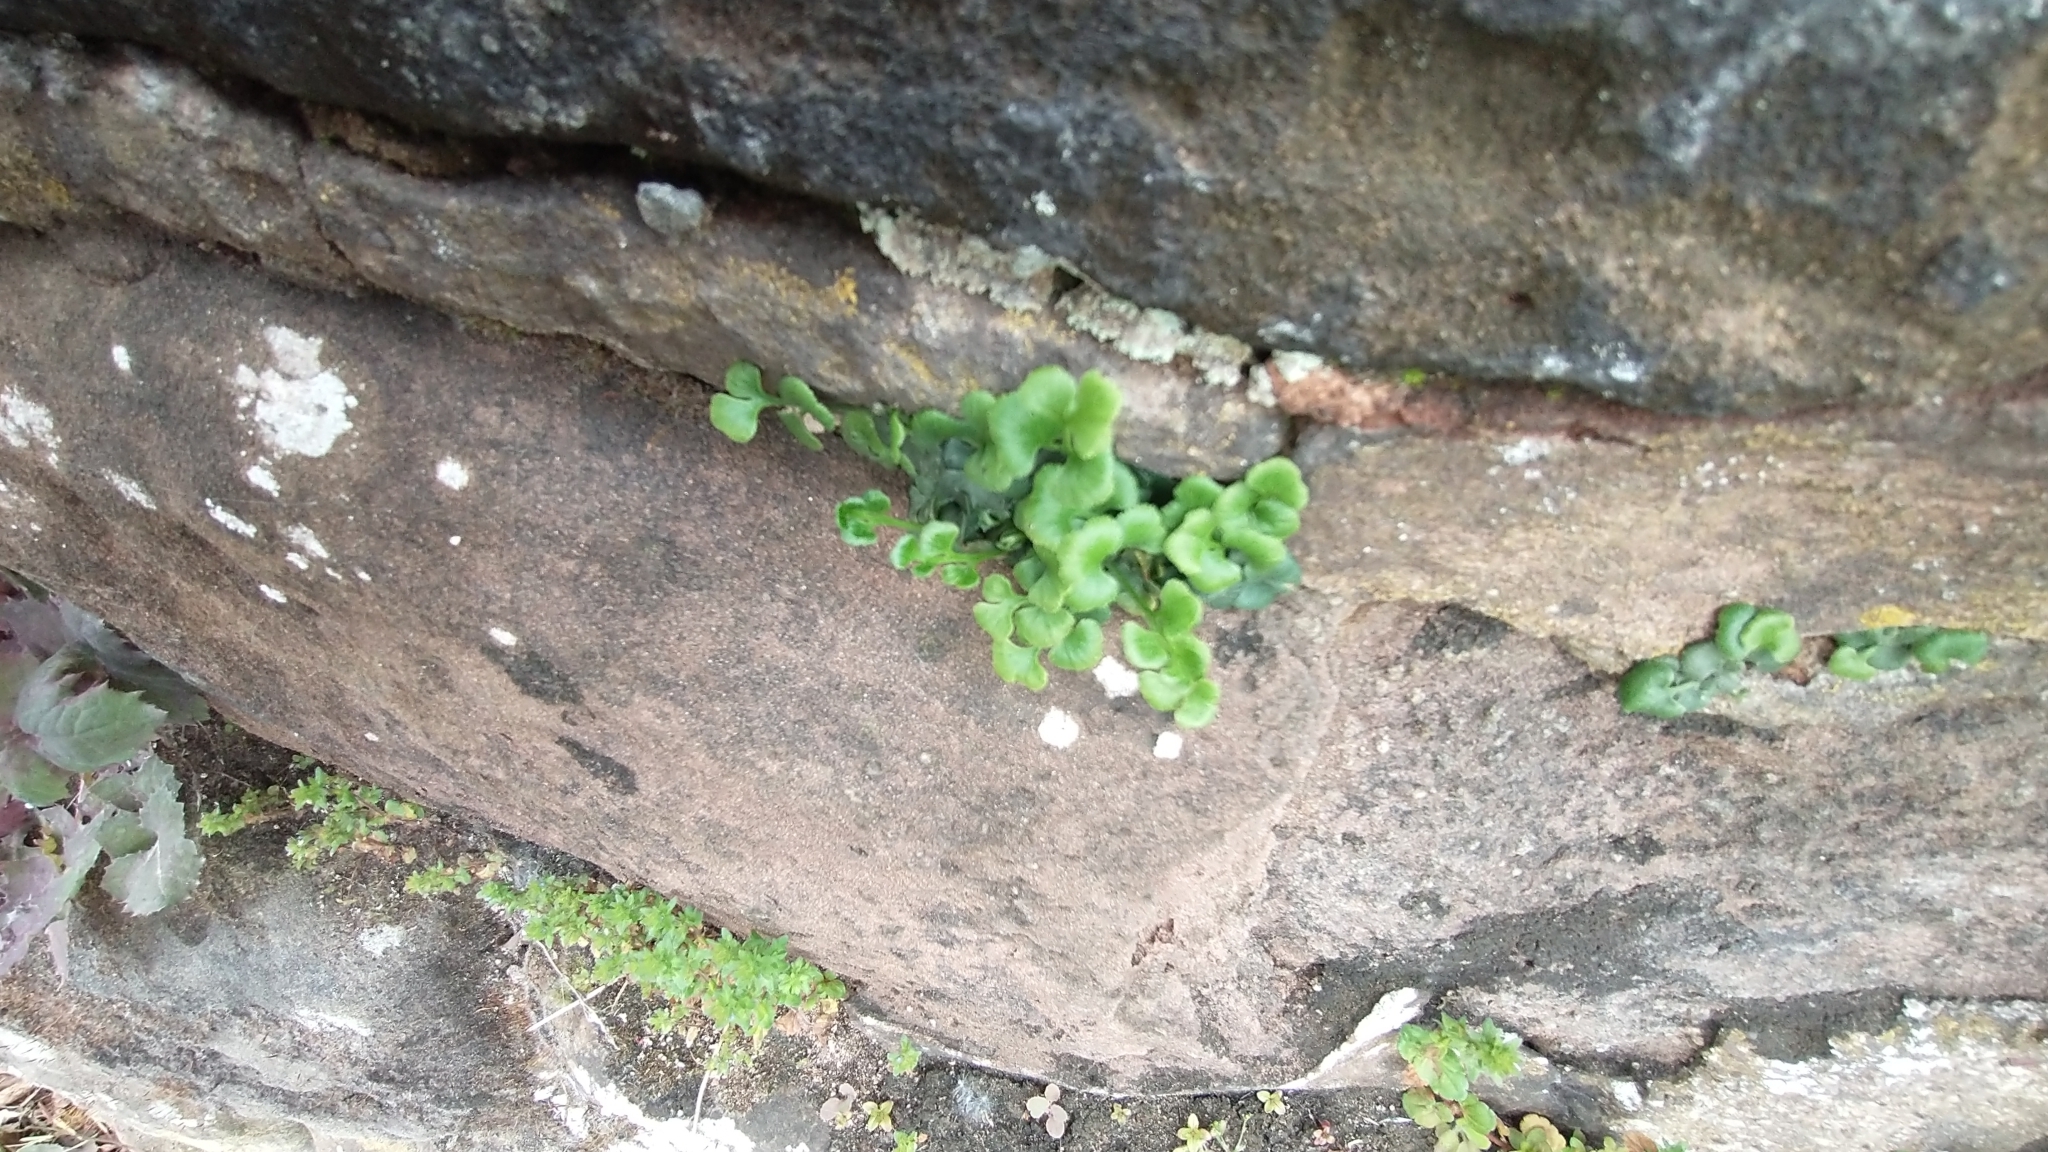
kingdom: Plantae
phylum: Tracheophyta
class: Polypodiopsida
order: Polypodiales
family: Aspleniaceae
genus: Asplenium
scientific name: Asplenium ruta-muraria
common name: Wall-rue
